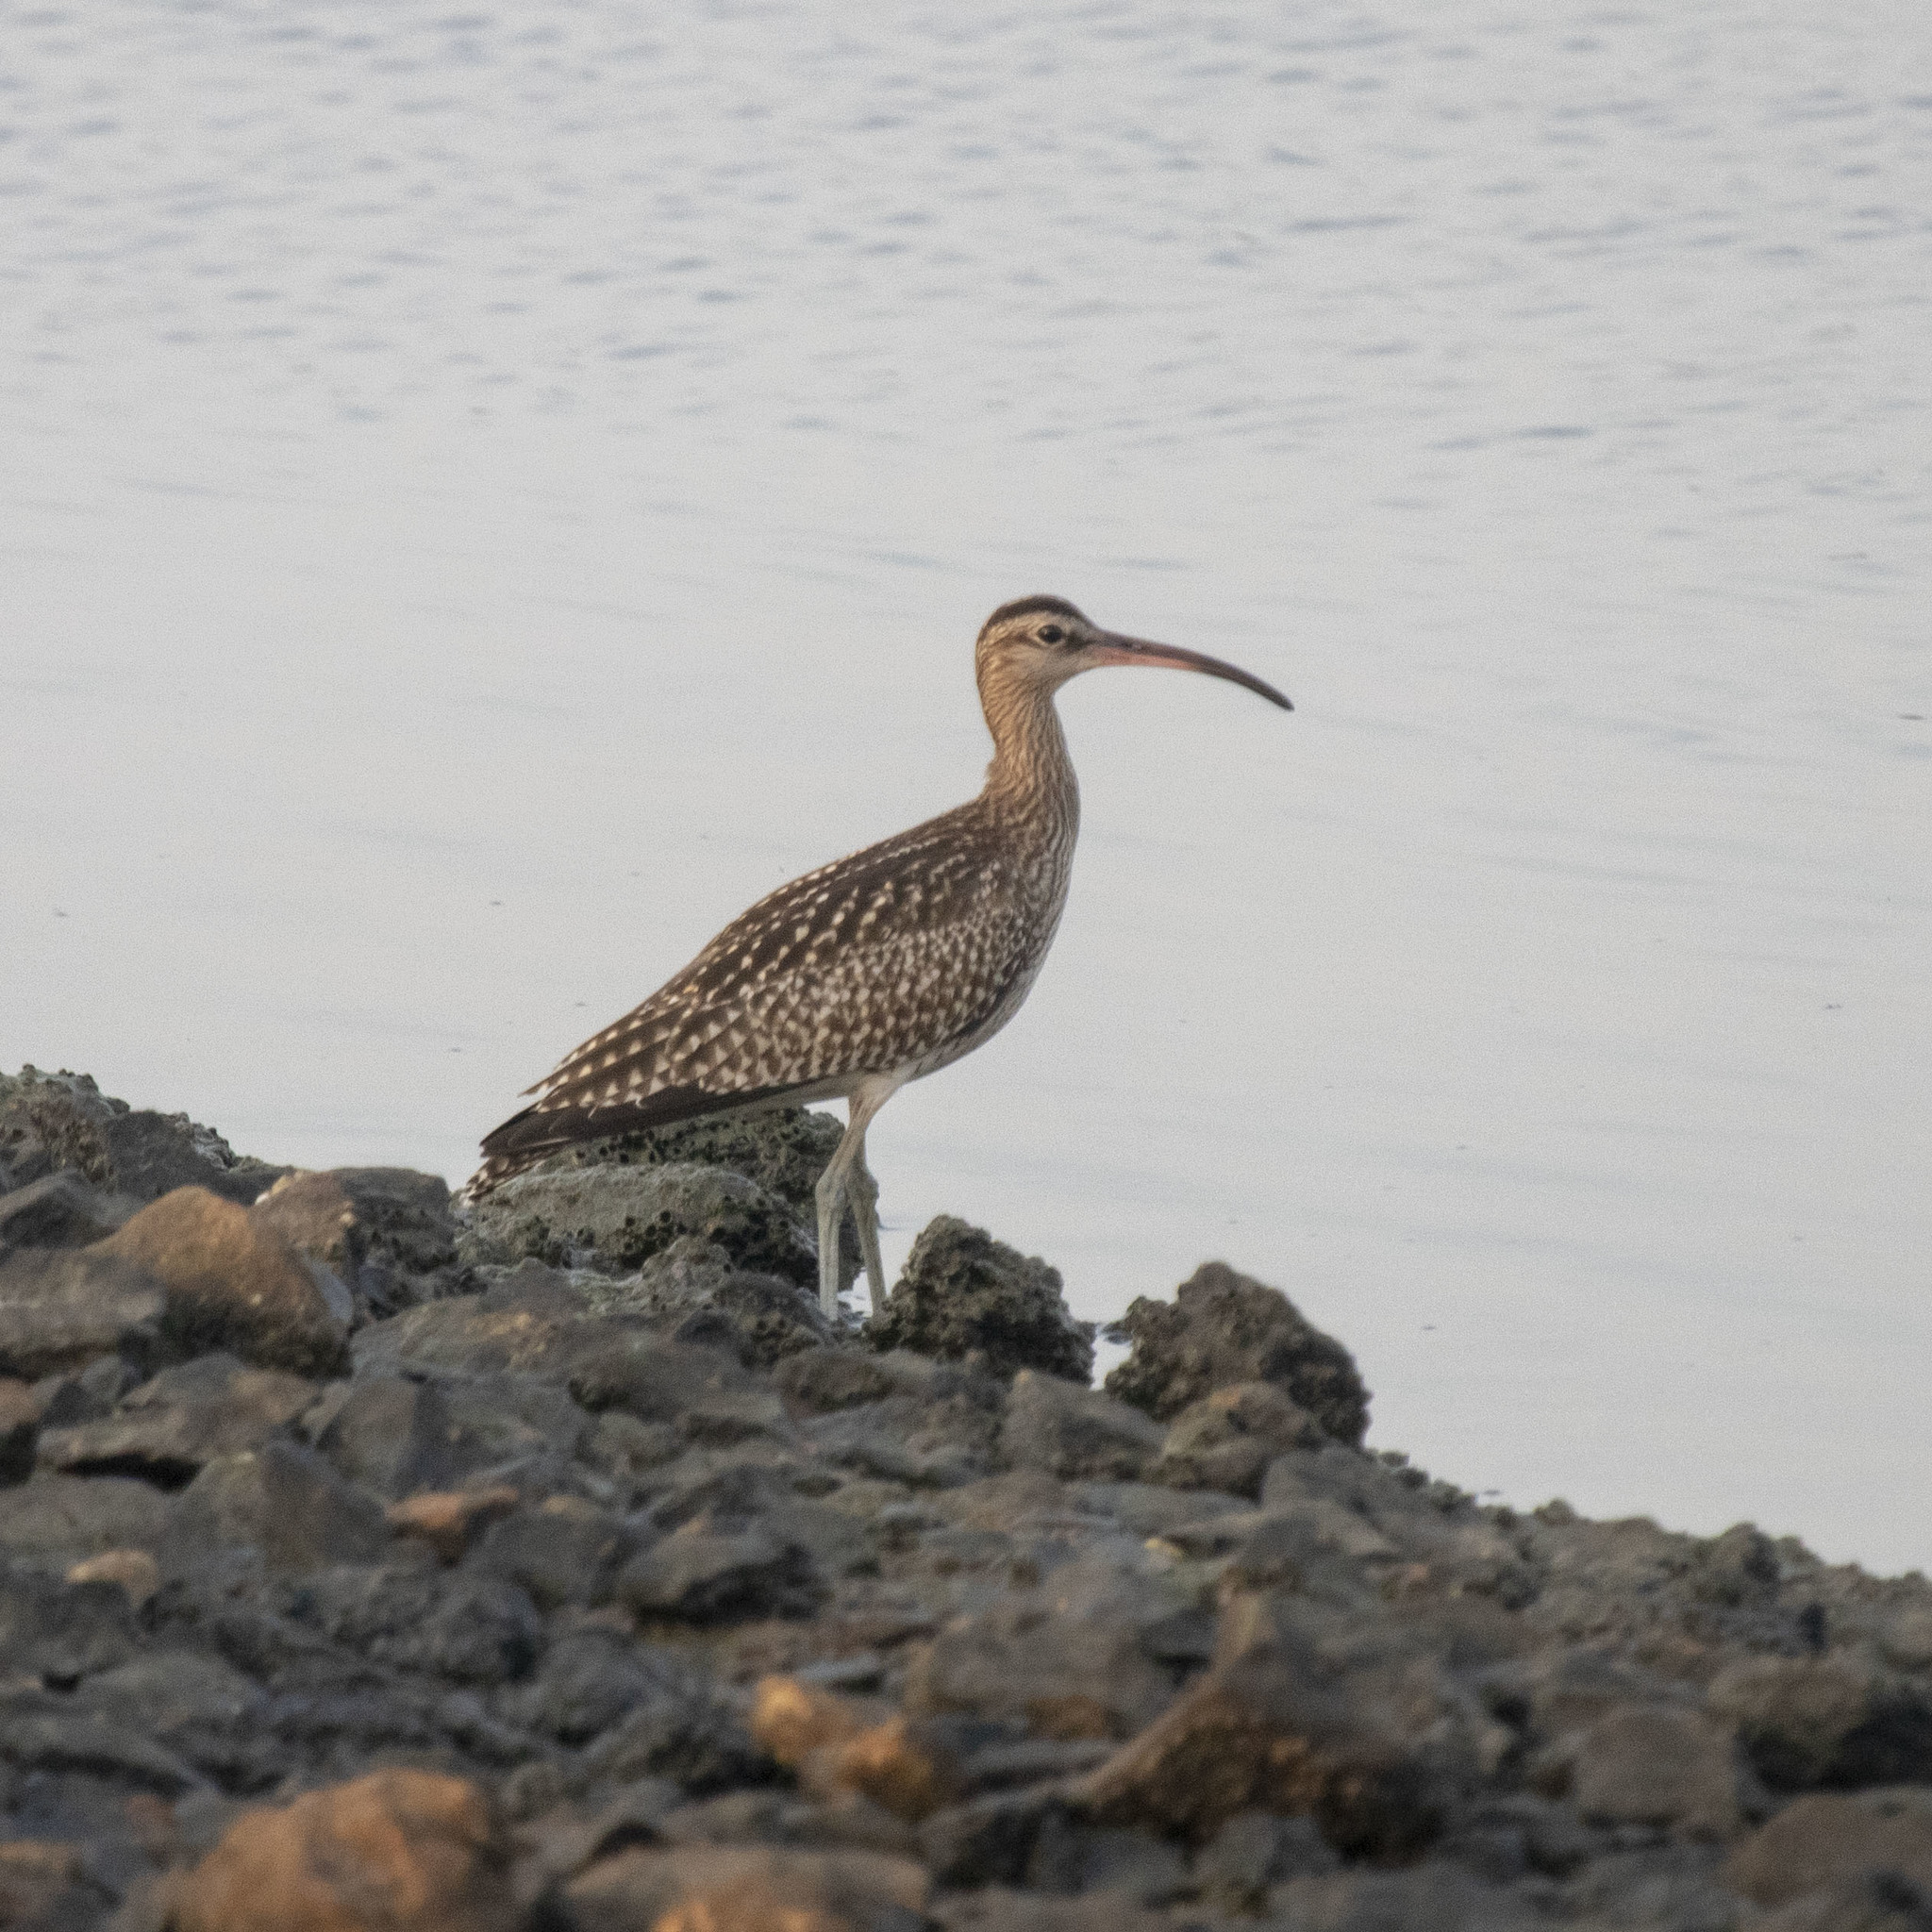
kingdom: Animalia
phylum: Chordata
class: Aves
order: Charadriiformes
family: Scolopacidae
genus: Numenius
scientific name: Numenius phaeopus
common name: Whimbrel
